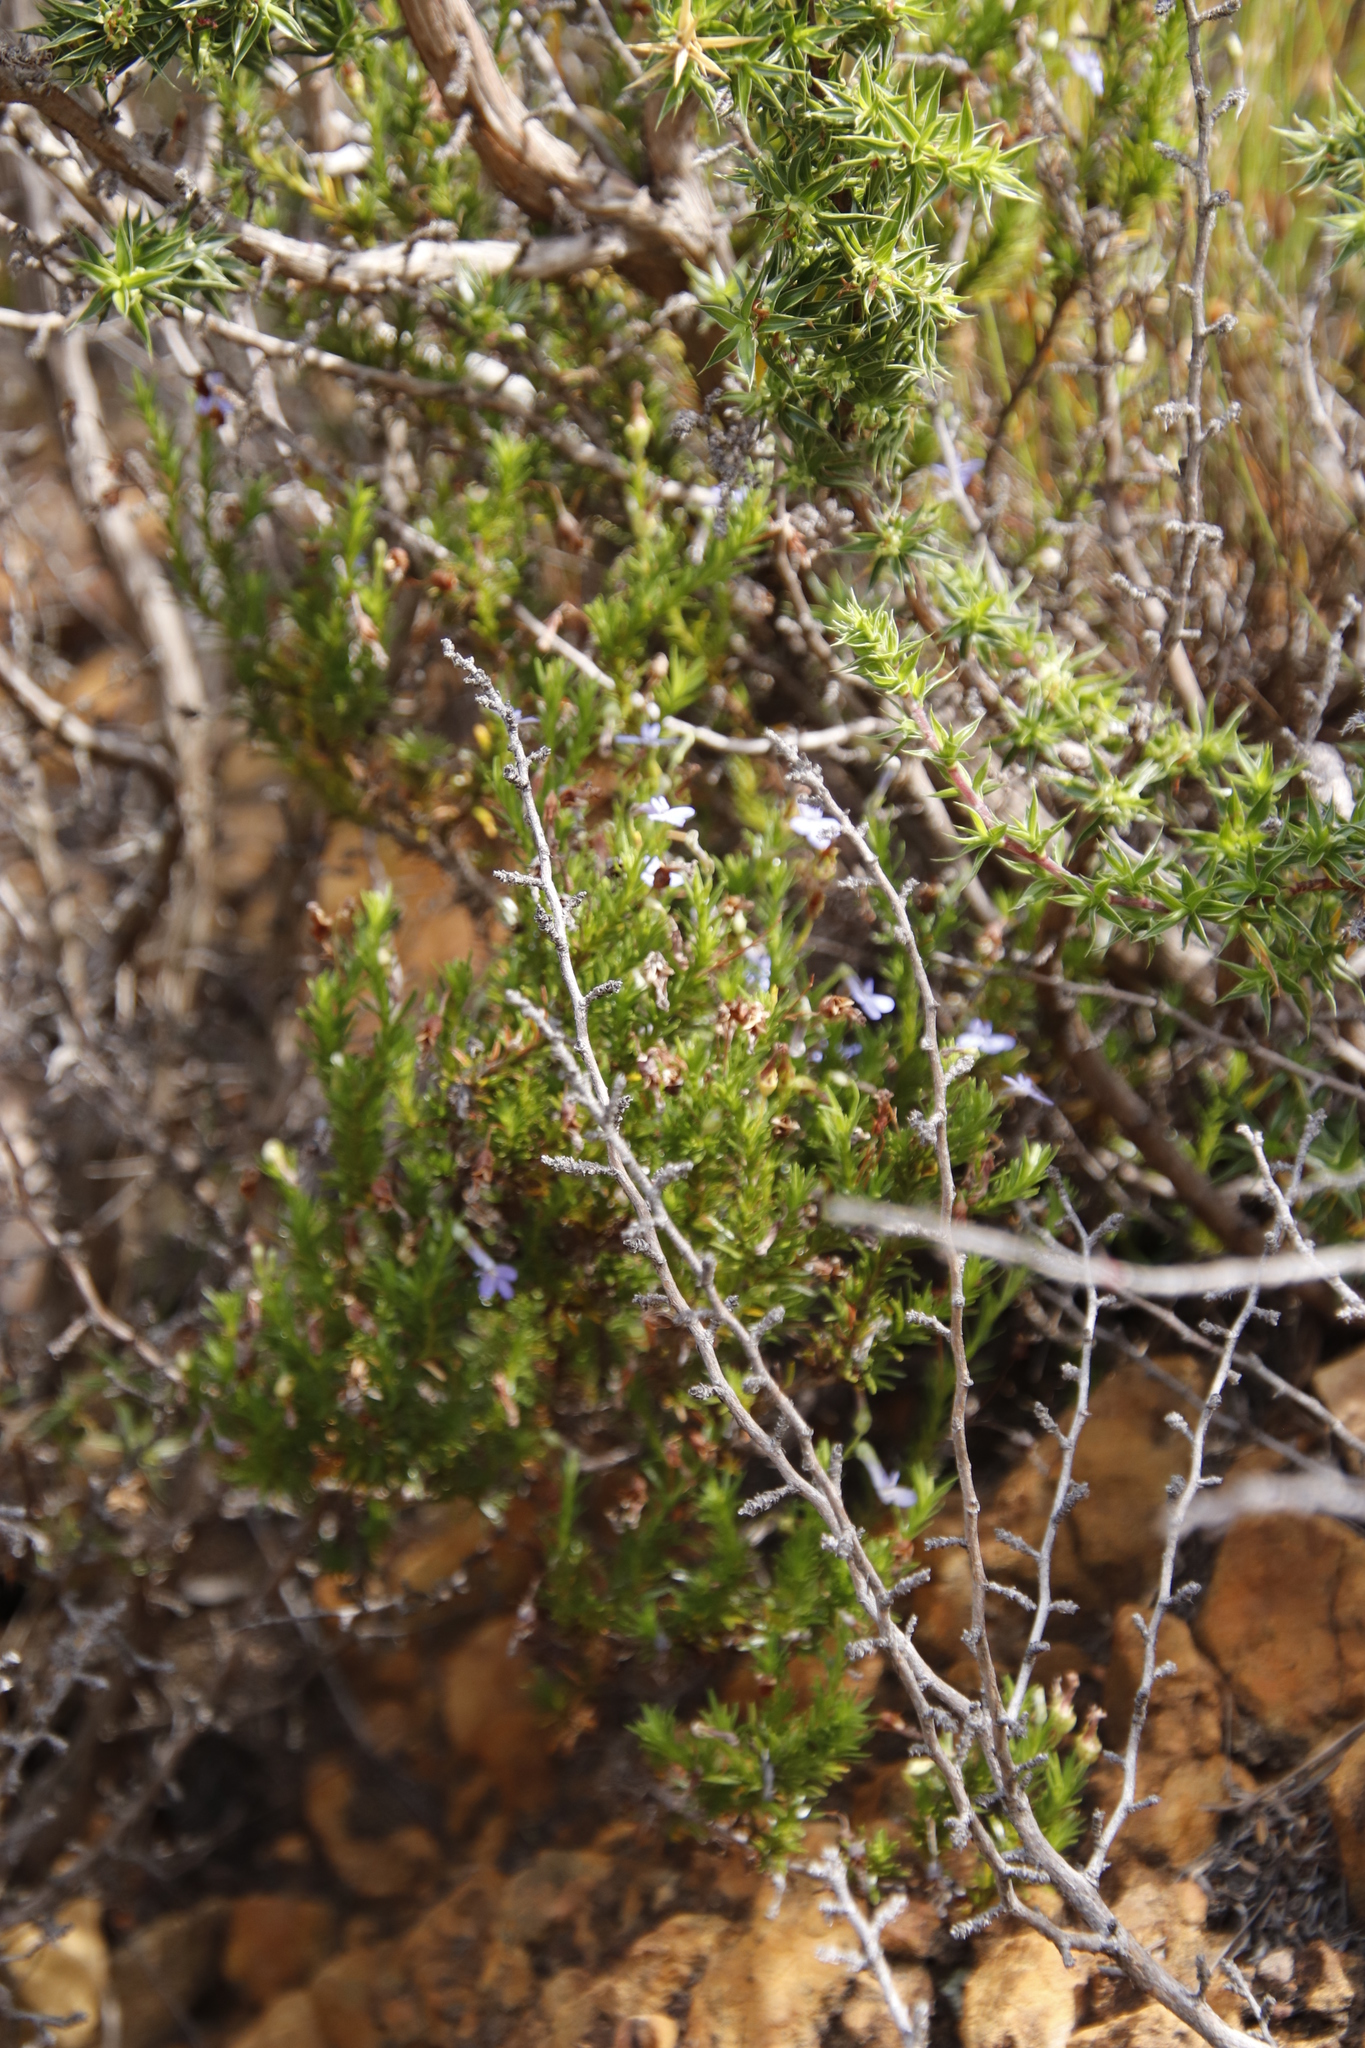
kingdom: Plantae
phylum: Tracheophyta
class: Magnoliopsida
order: Rosales
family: Rosaceae
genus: Cliffortia
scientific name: Cliffortia ruscifolia
